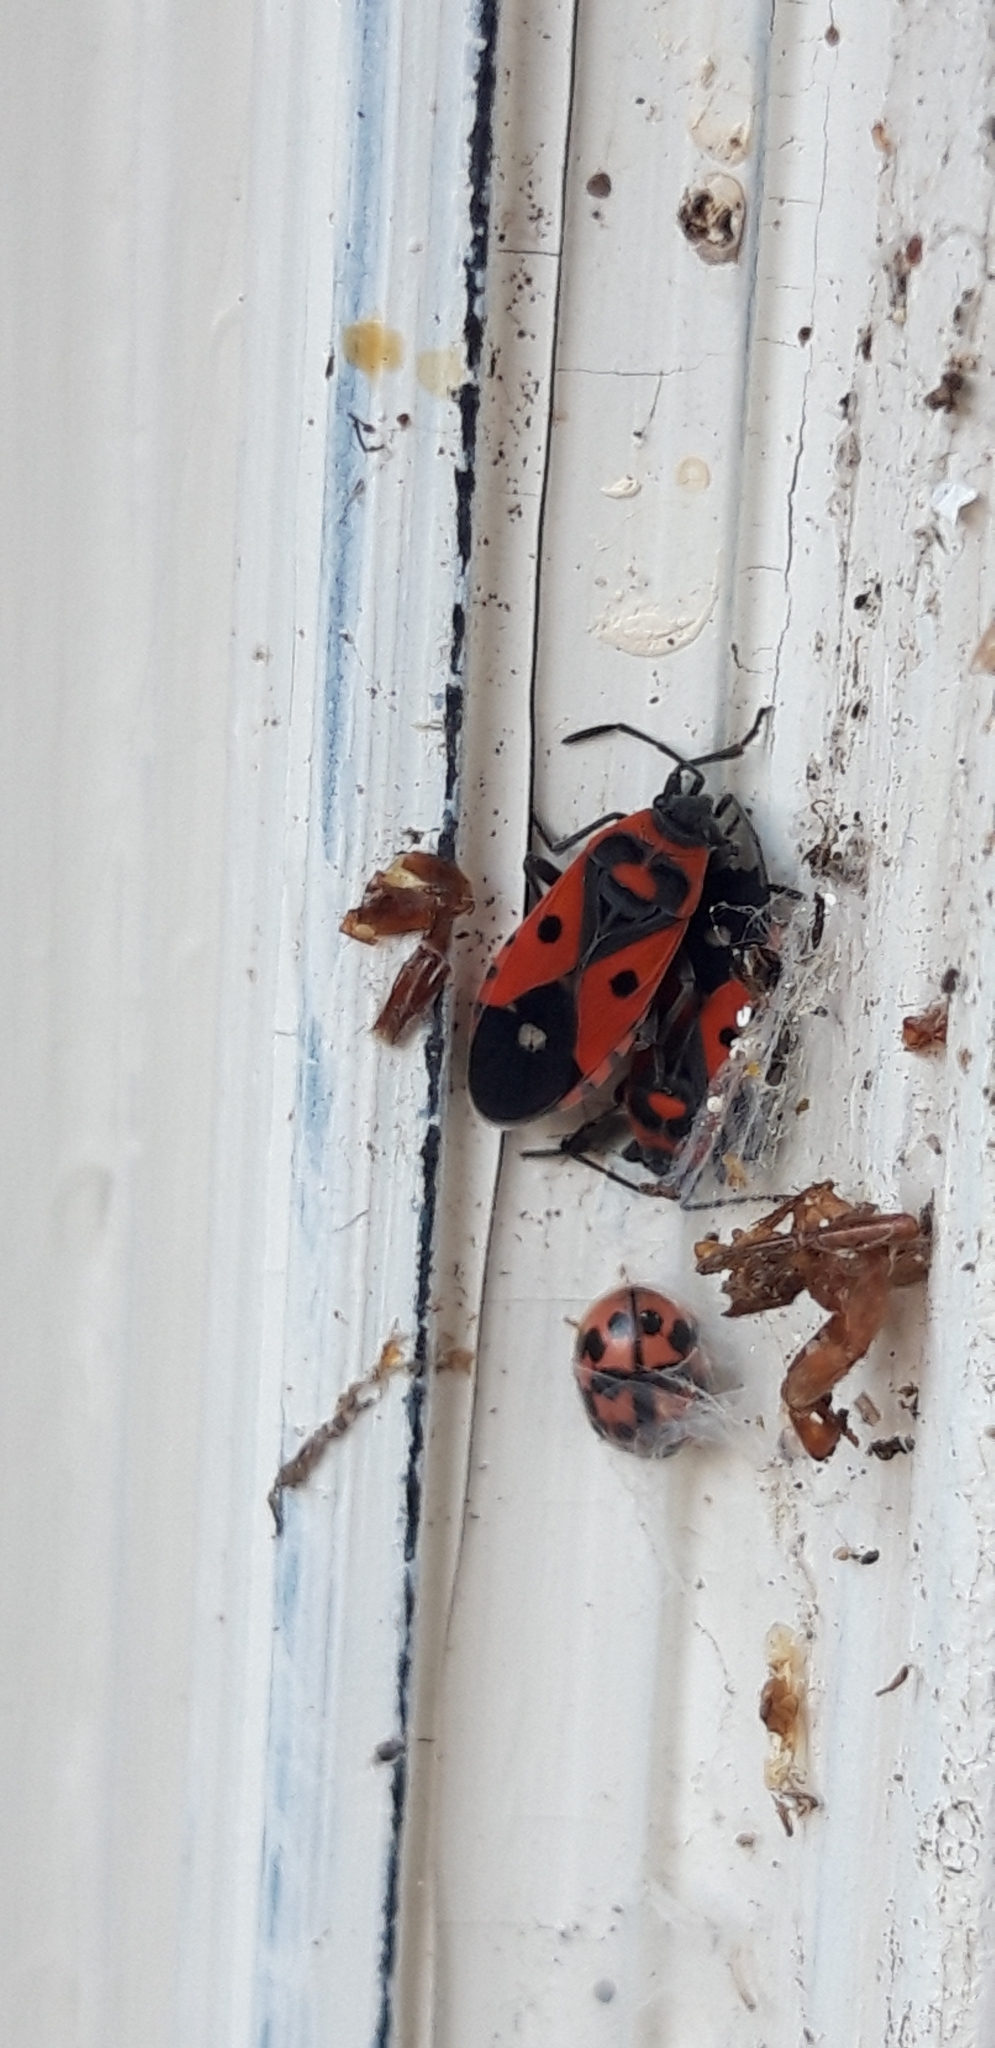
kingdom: Animalia
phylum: Arthropoda
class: Insecta
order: Coleoptera
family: Coccinellidae
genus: Oenopia
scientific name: Oenopia conglobata
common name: Ladybird beetle
